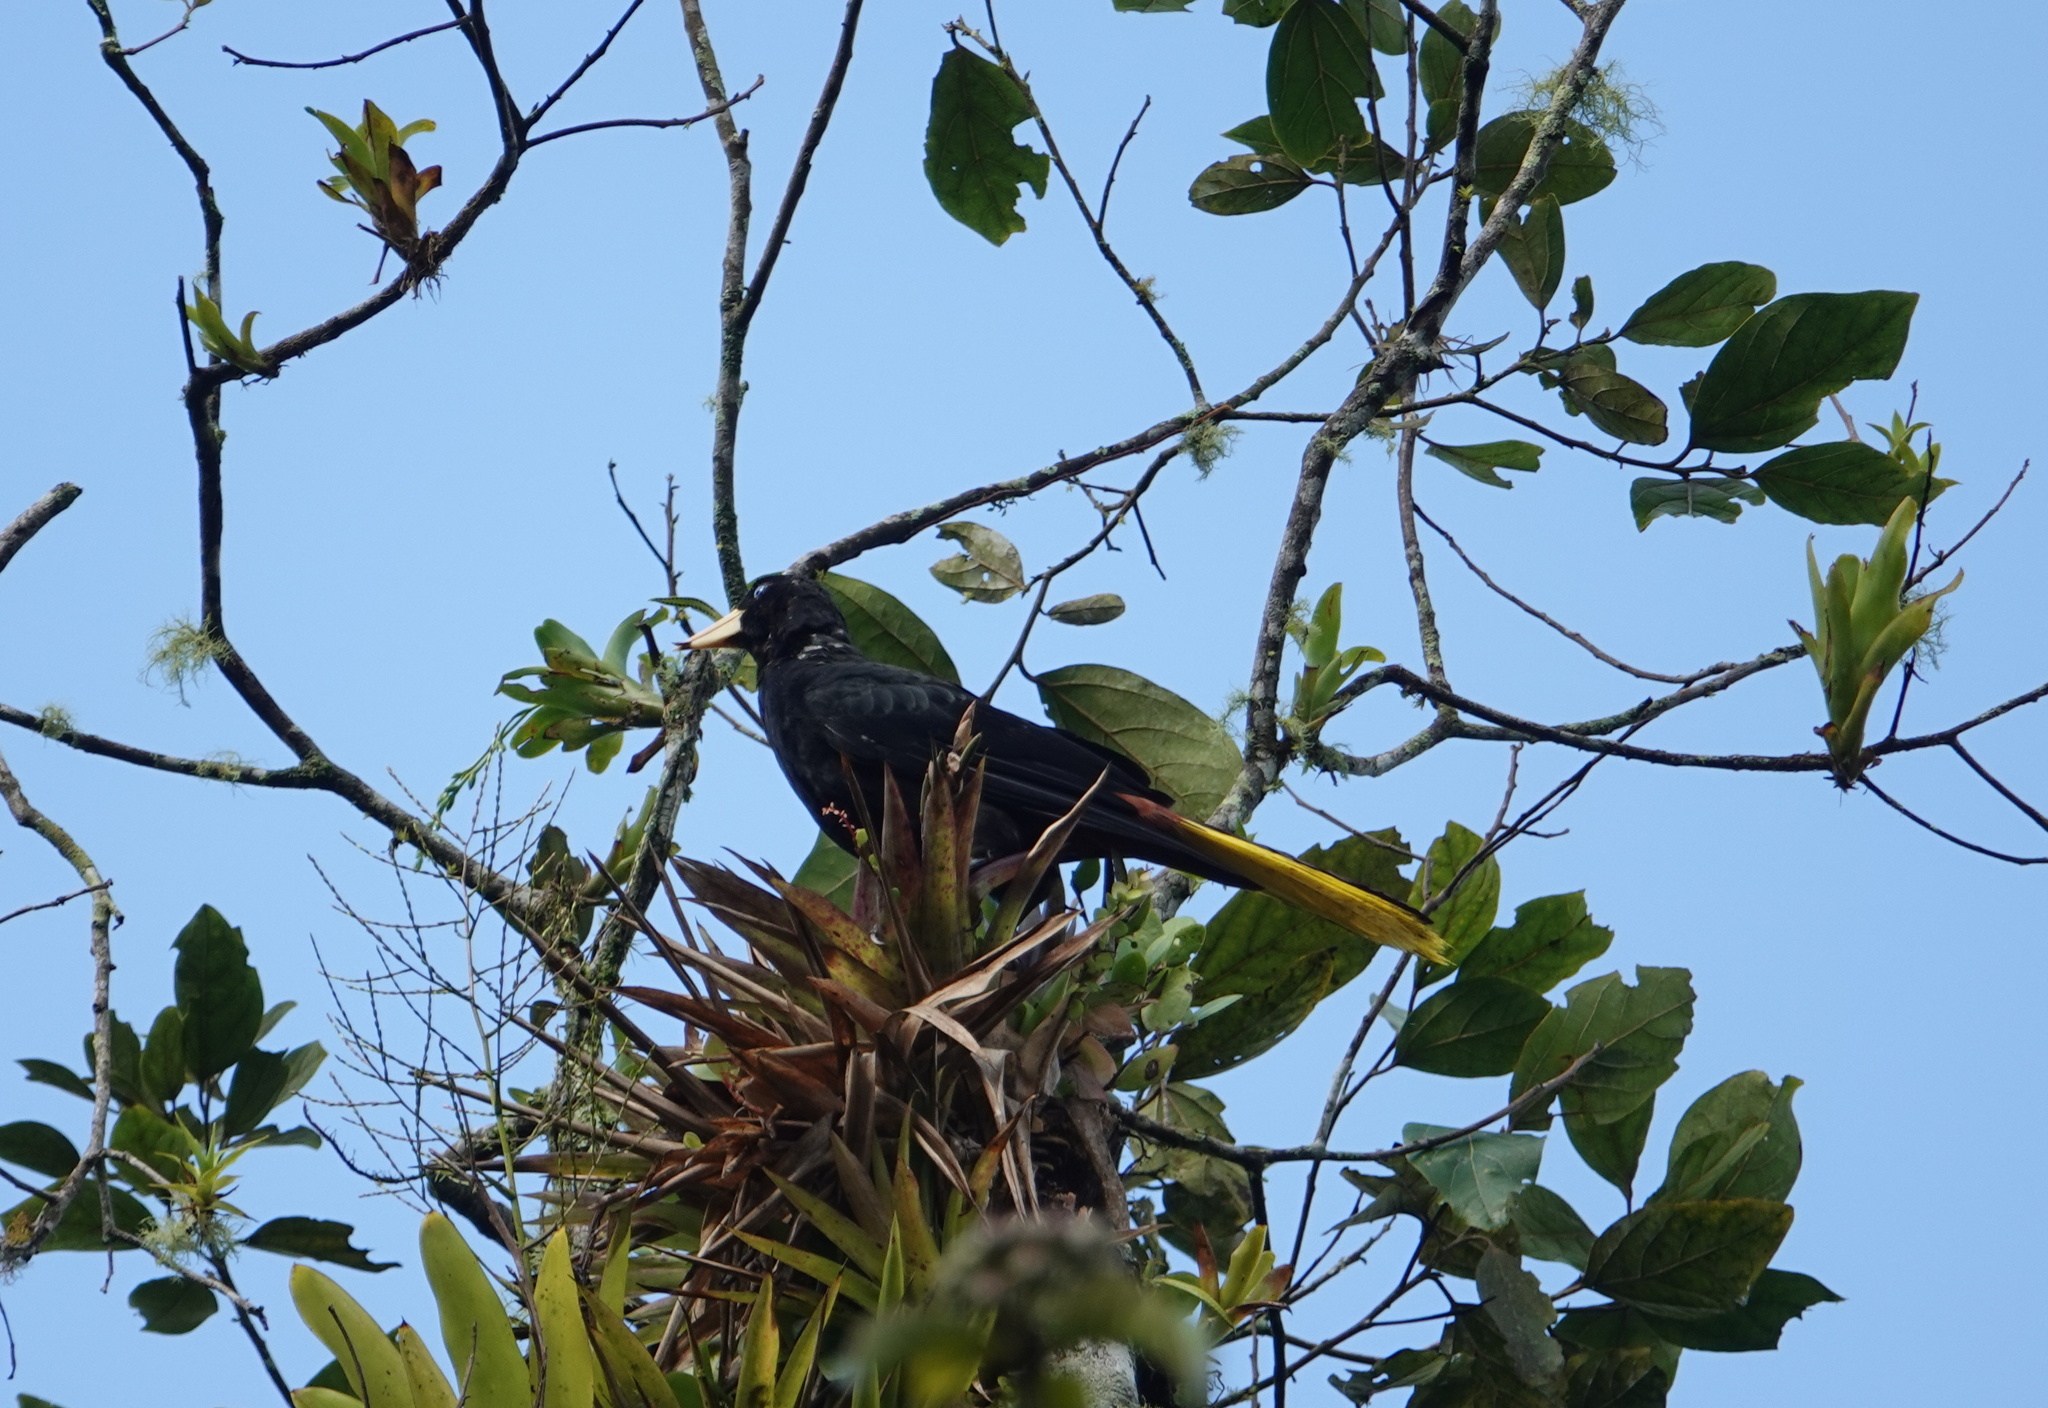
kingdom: Animalia
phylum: Chordata
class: Aves
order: Passeriformes
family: Icteridae
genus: Psarocolius
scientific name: Psarocolius decumanus
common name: Crested oropendola
